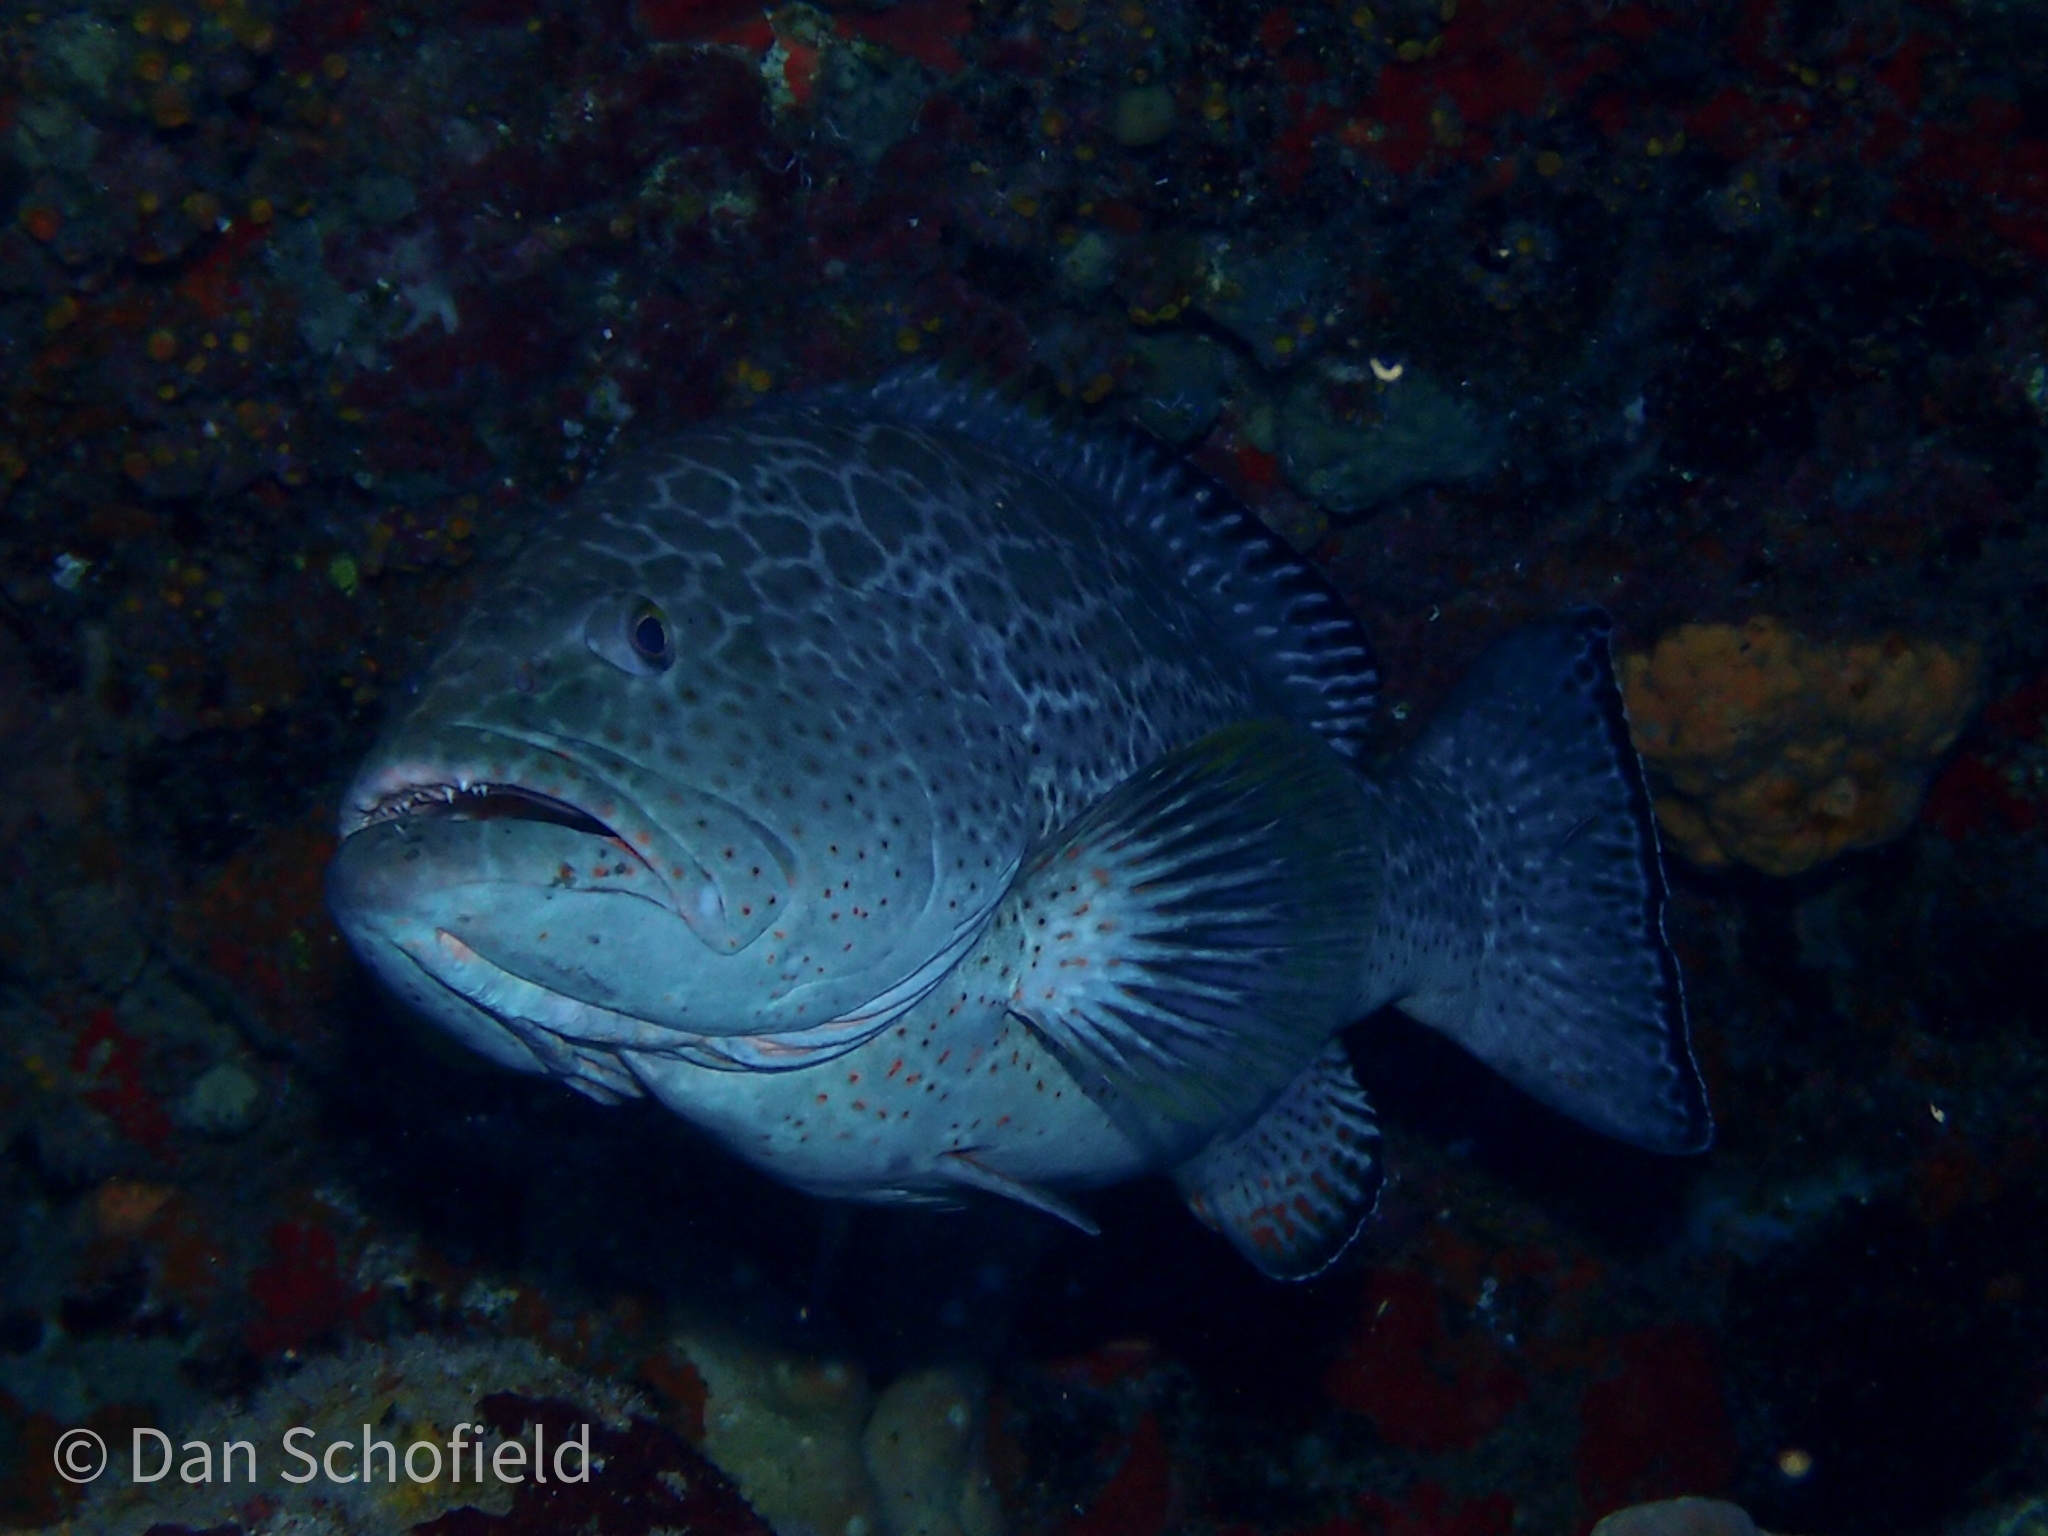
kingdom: Animalia
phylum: Chordata
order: Perciformes
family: Serranidae
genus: Mycteroperca
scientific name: Mycteroperca venenosa
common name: Yellowfin grouper
